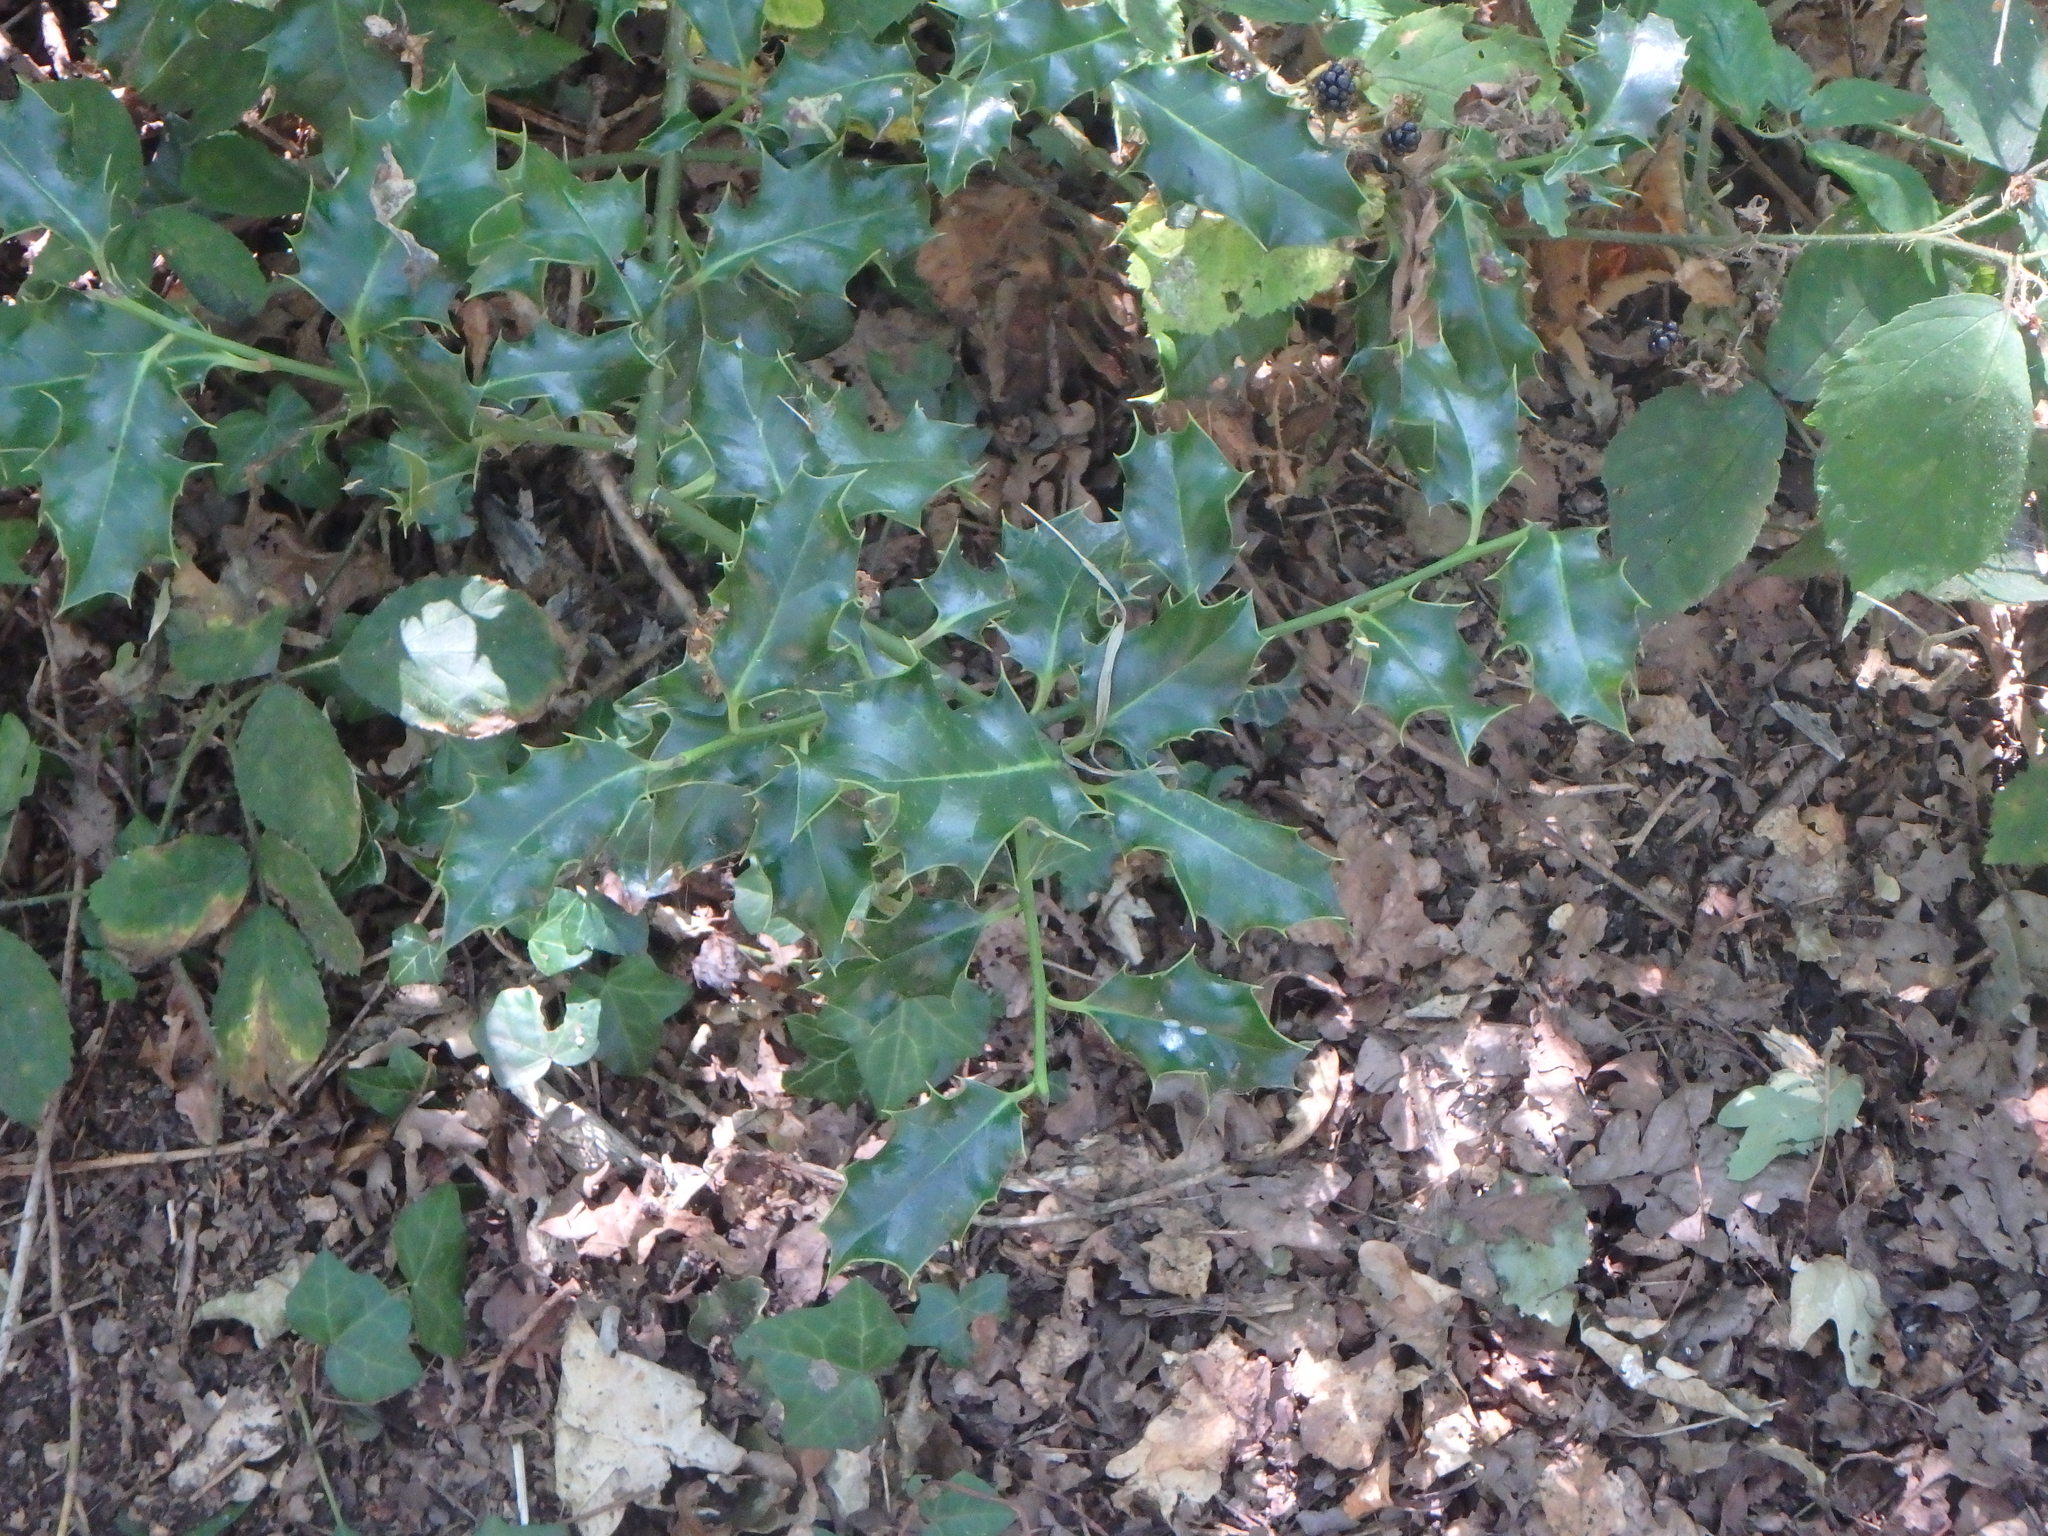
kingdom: Plantae
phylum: Tracheophyta
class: Magnoliopsida
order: Aquifoliales
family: Aquifoliaceae
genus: Ilex
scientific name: Ilex aquifolium
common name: English holly
